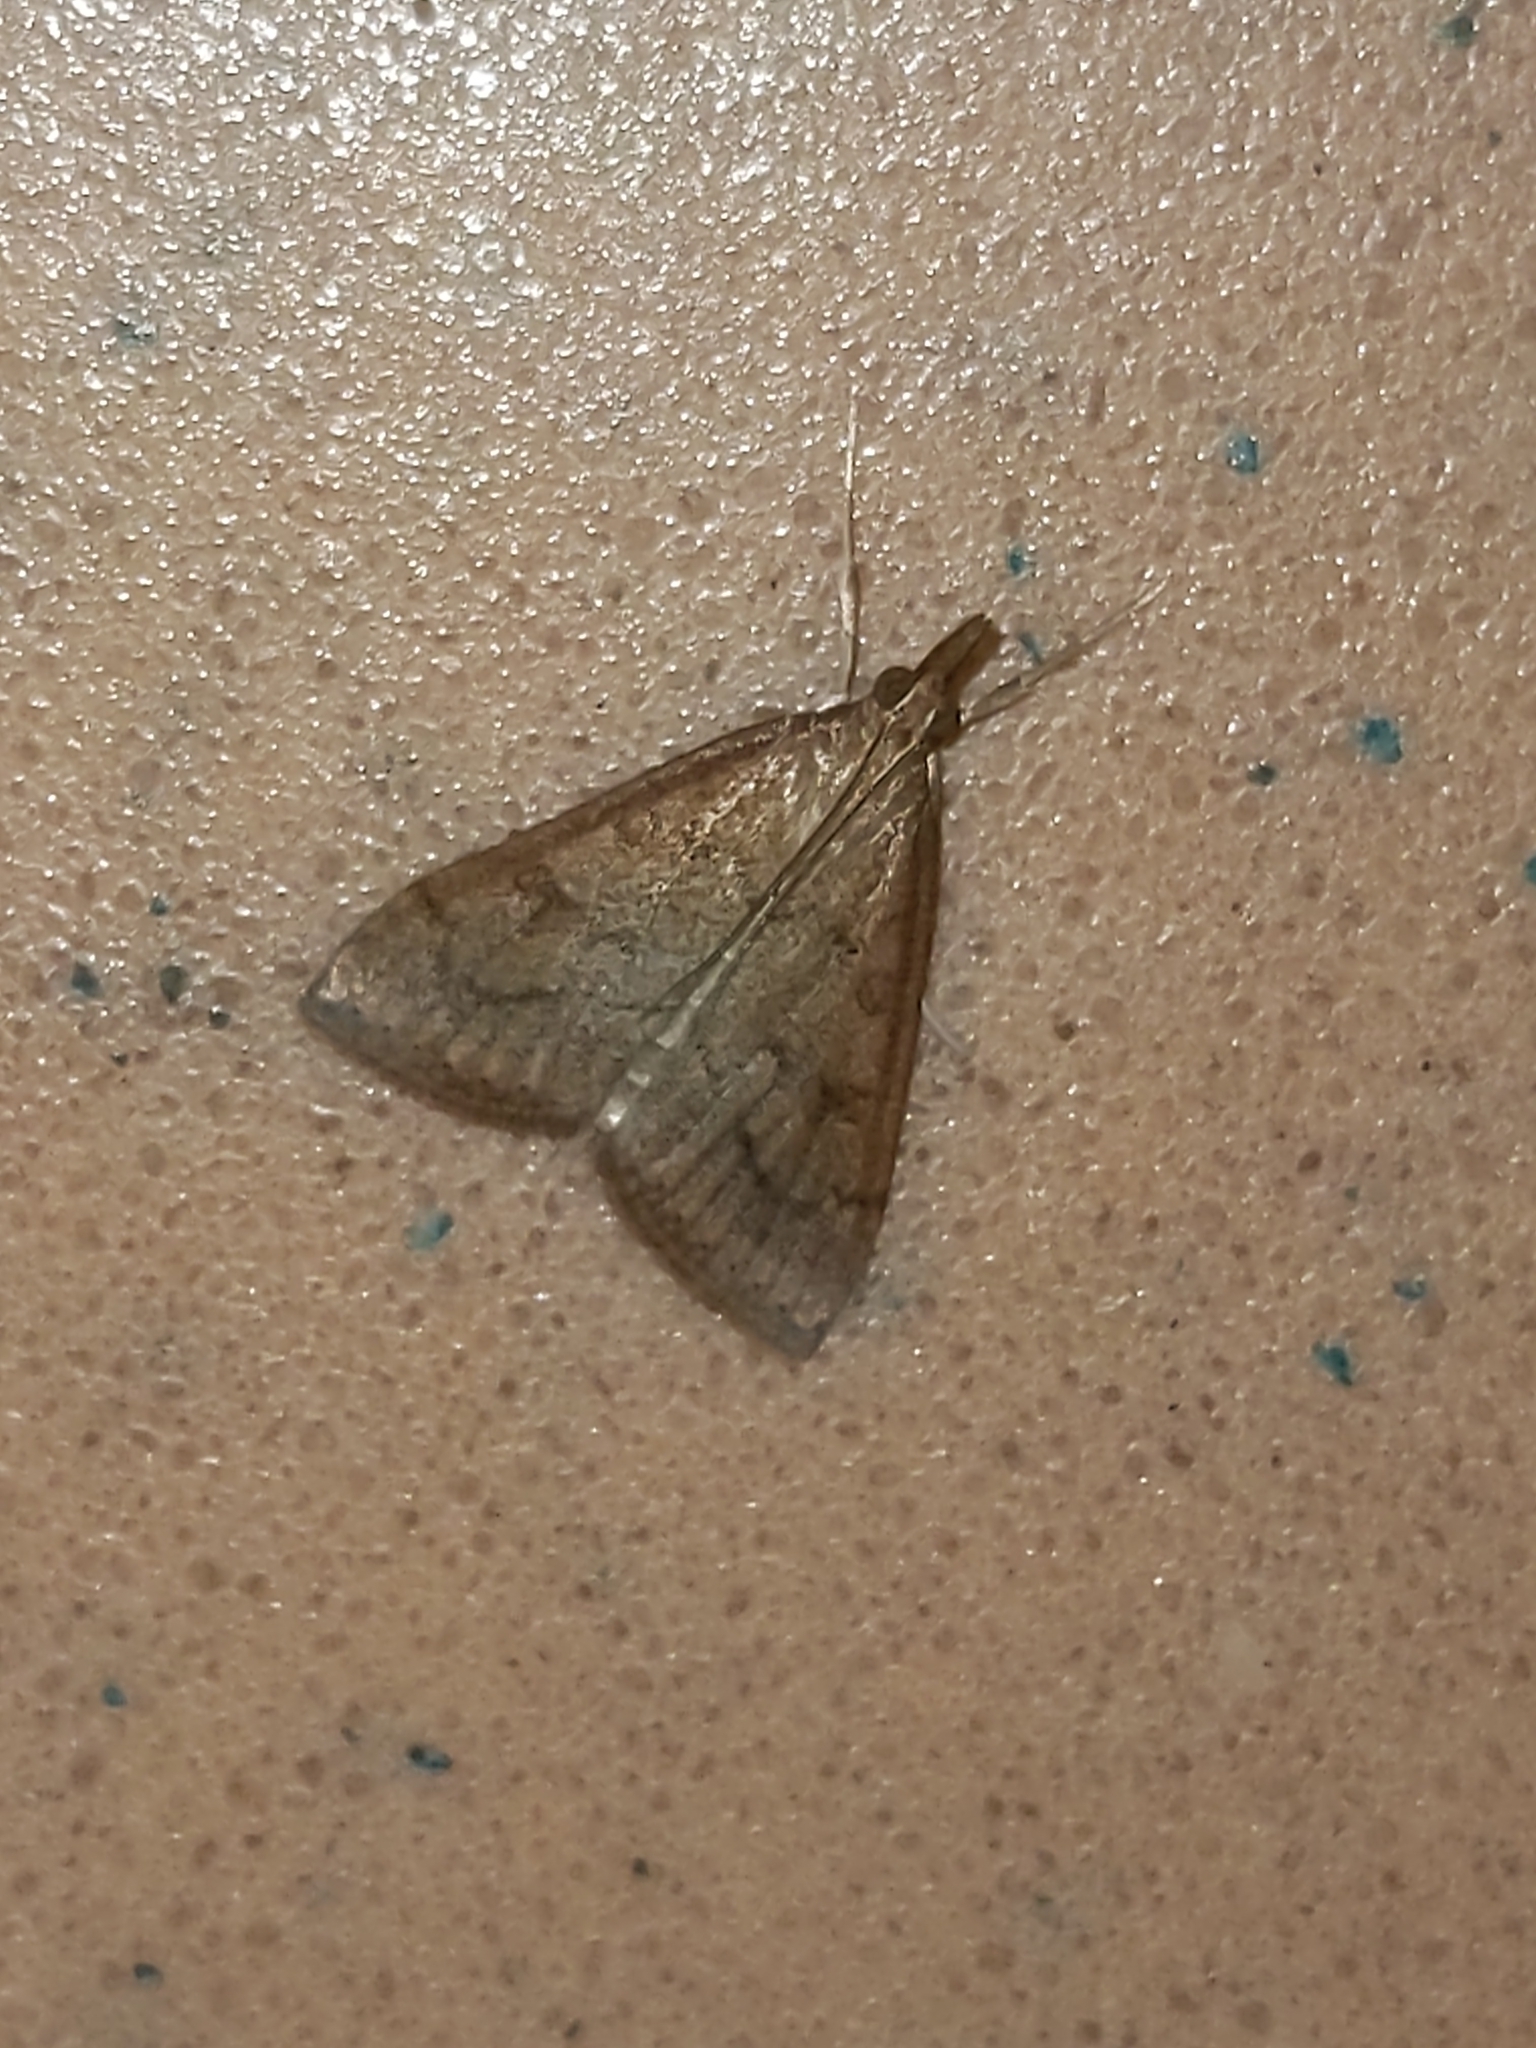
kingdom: Animalia
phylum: Arthropoda
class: Insecta
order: Lepidoptera
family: Crambidae
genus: Udea
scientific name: Udea rubigalis
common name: Celery leaftier moth
